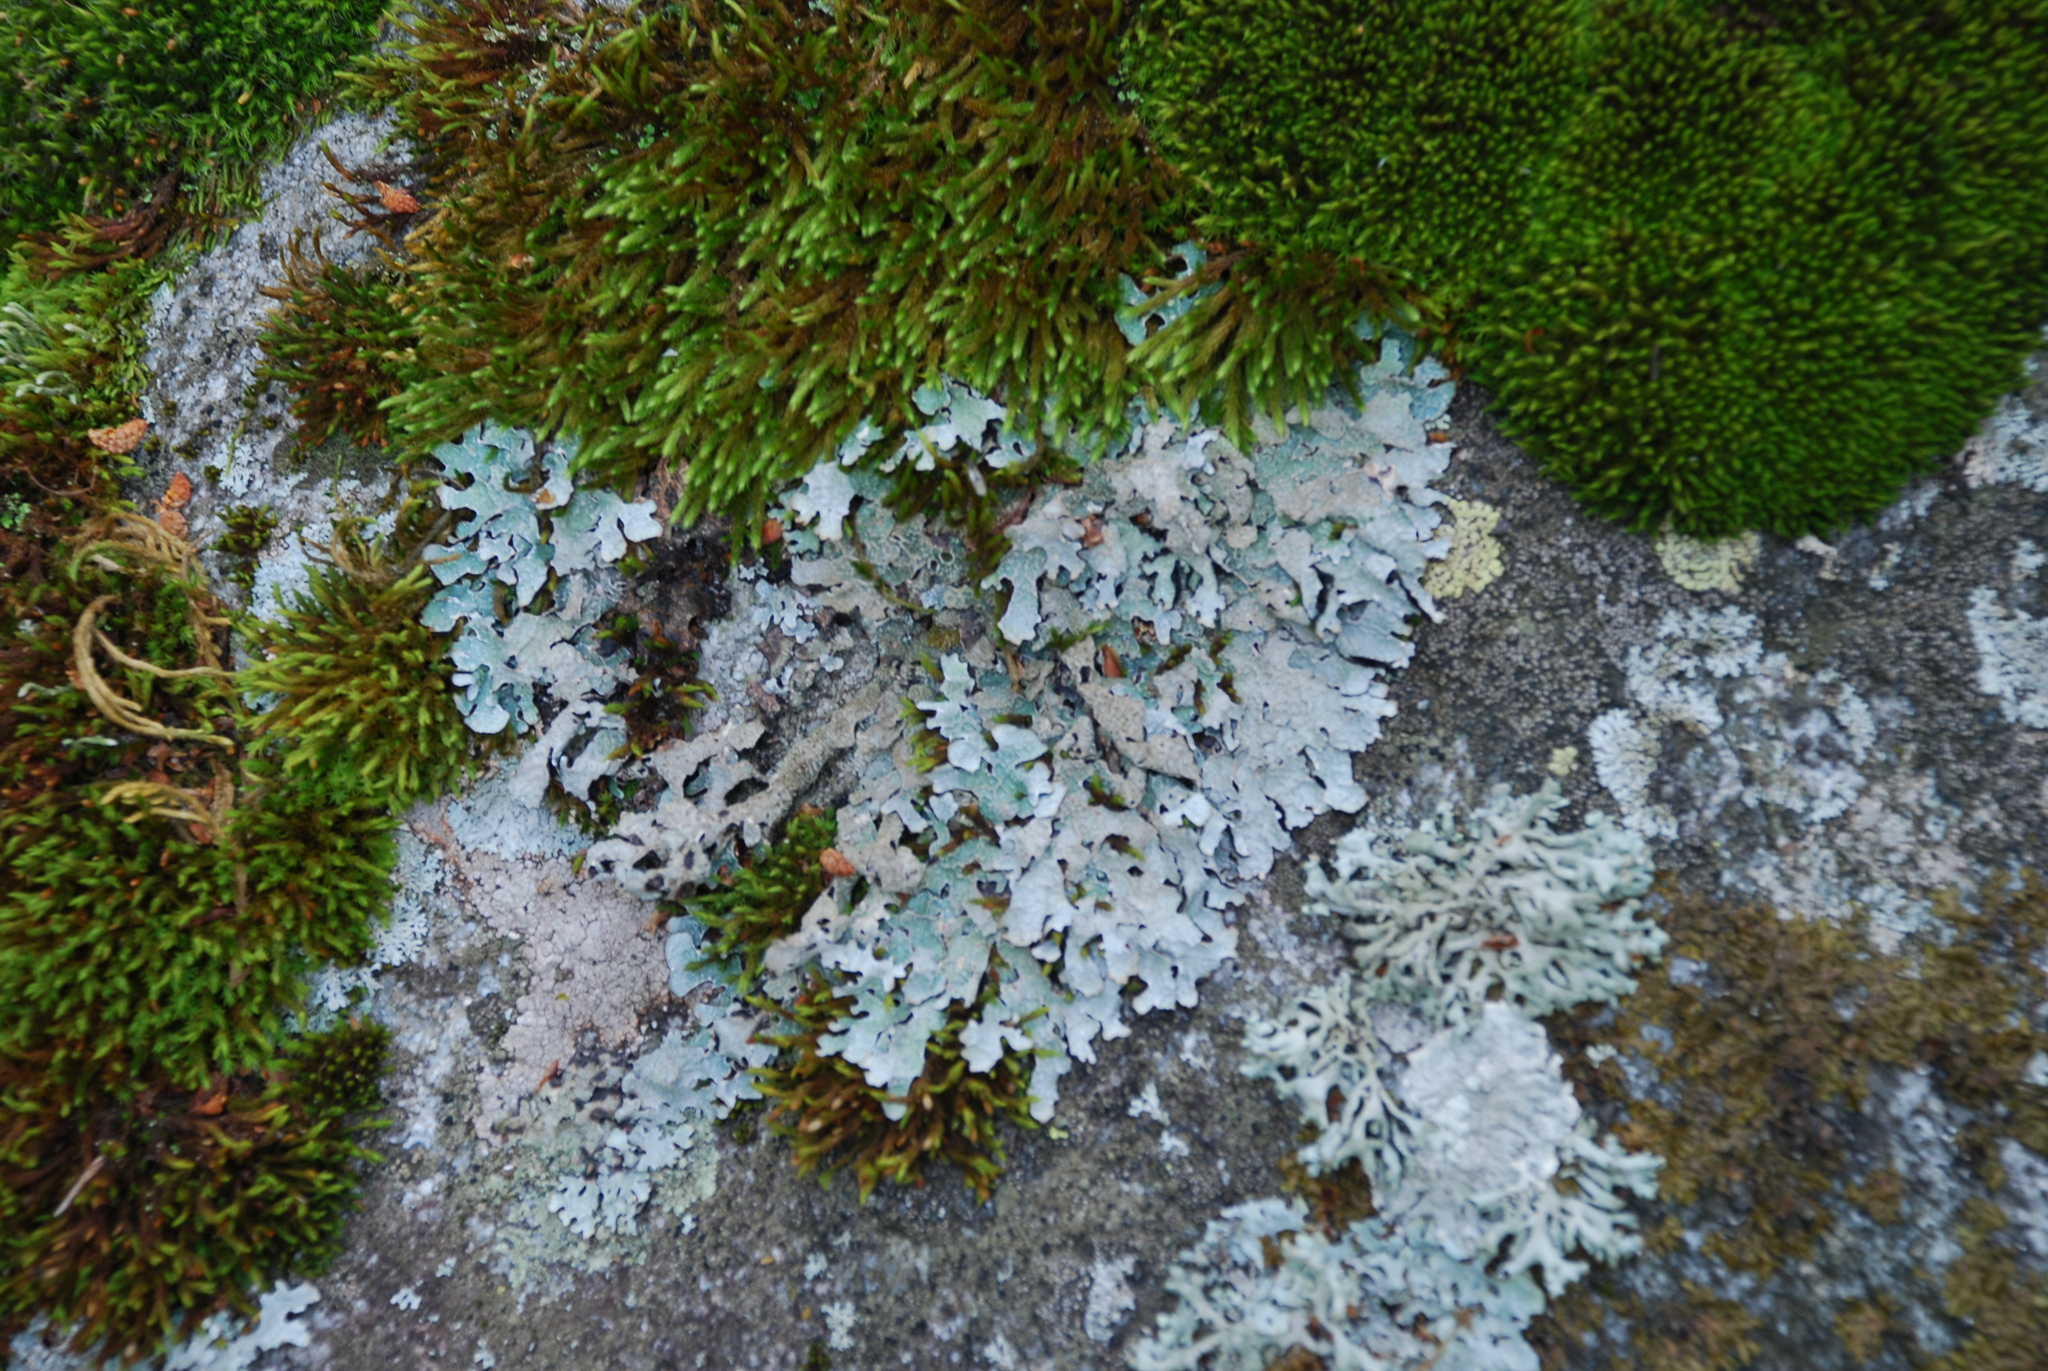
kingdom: Fungi
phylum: Ascomycota
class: Lecanoromycetes
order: Lecanorales
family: Parmeliaceae
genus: Parmelia
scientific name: Parmelia sulcata
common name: Netted shield lichen
